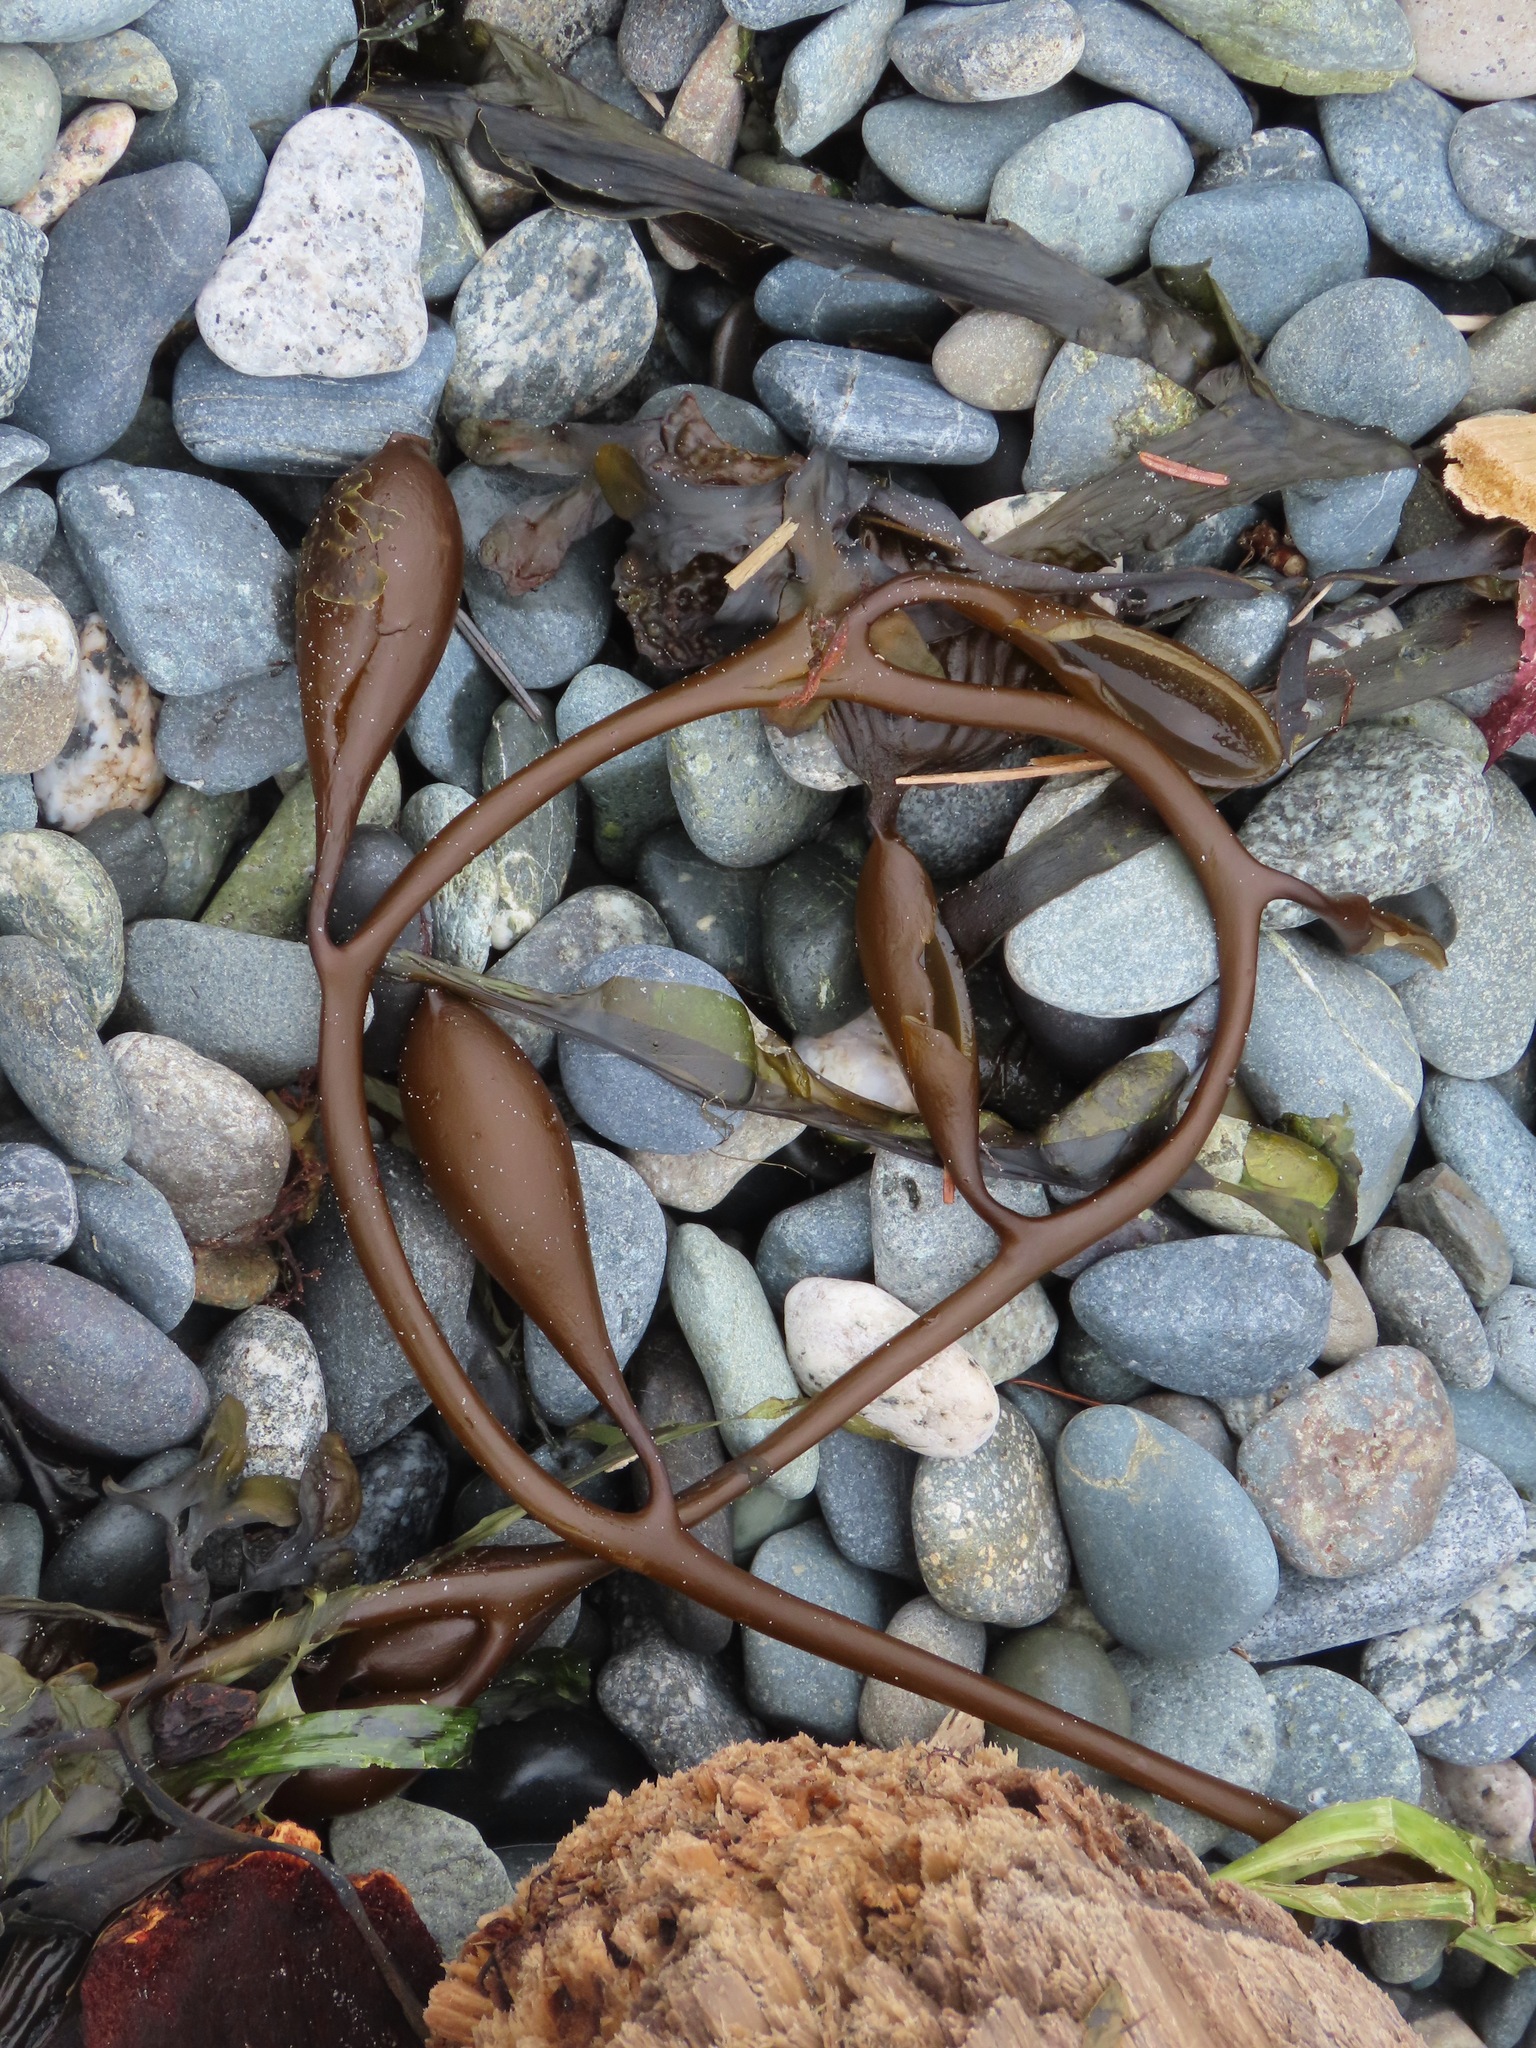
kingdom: Chromista
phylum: Ochrophyta
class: Phaeophyceae
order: Laminariales
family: Laminariaceae
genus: Macrocystis
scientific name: Macrocystis pyrifera
